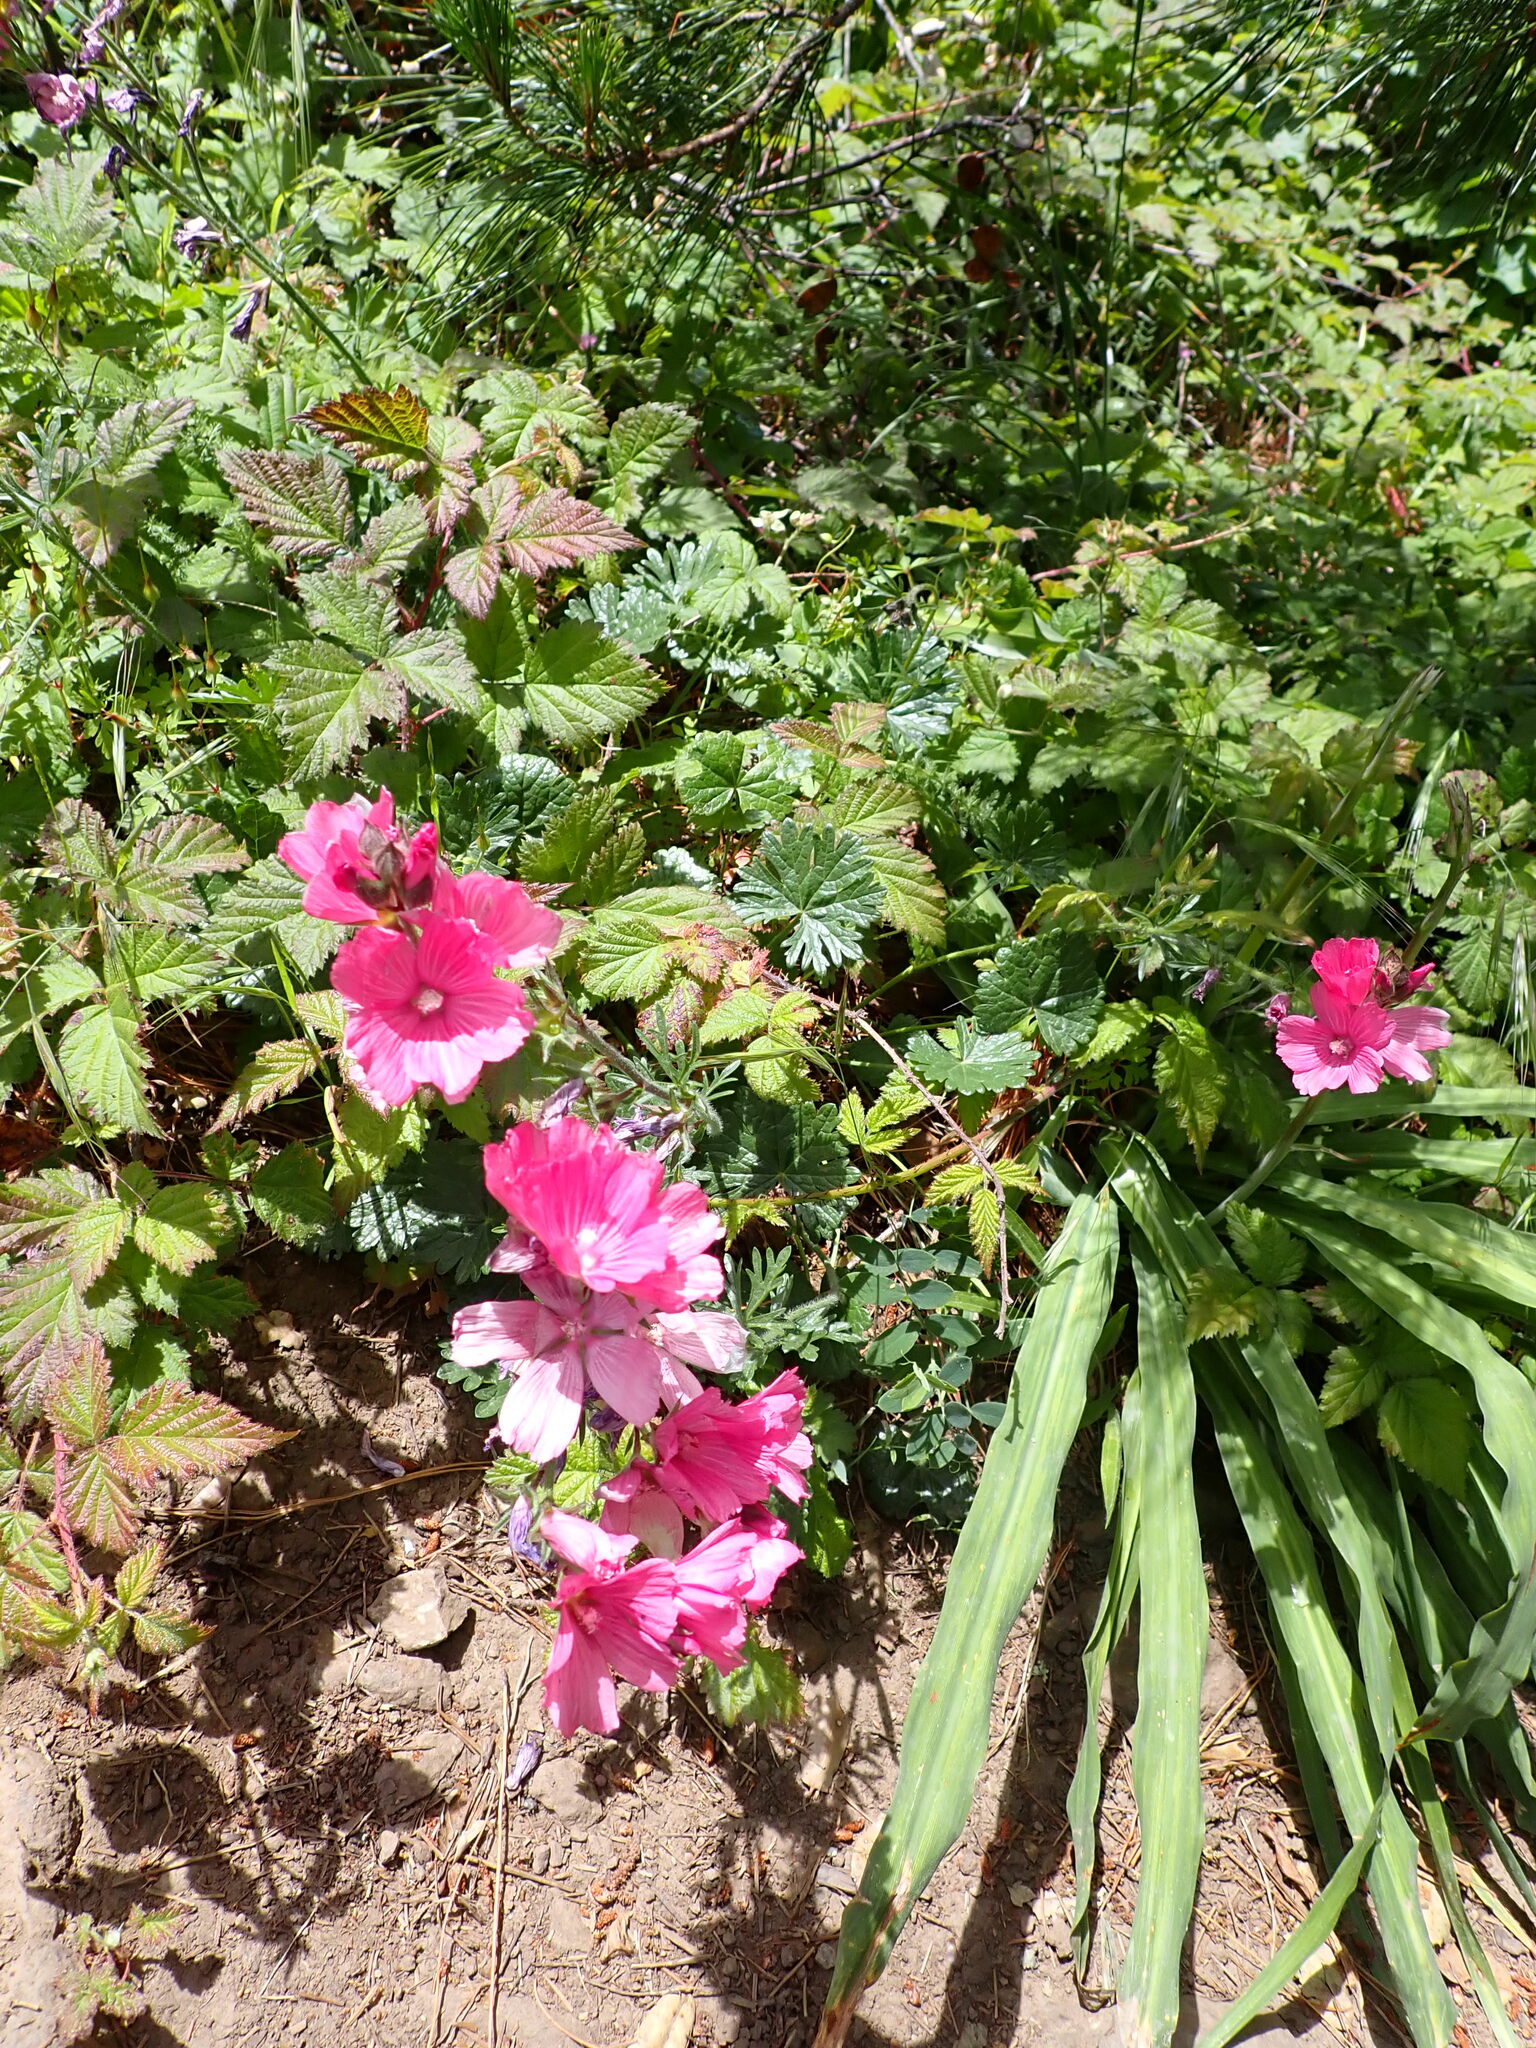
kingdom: Plantae
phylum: Tracheophyta
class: Magnoliopsida
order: Malvales
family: Malvaceae
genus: Sidalcea
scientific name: Sidalcea malviflora
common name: Greek mallow
